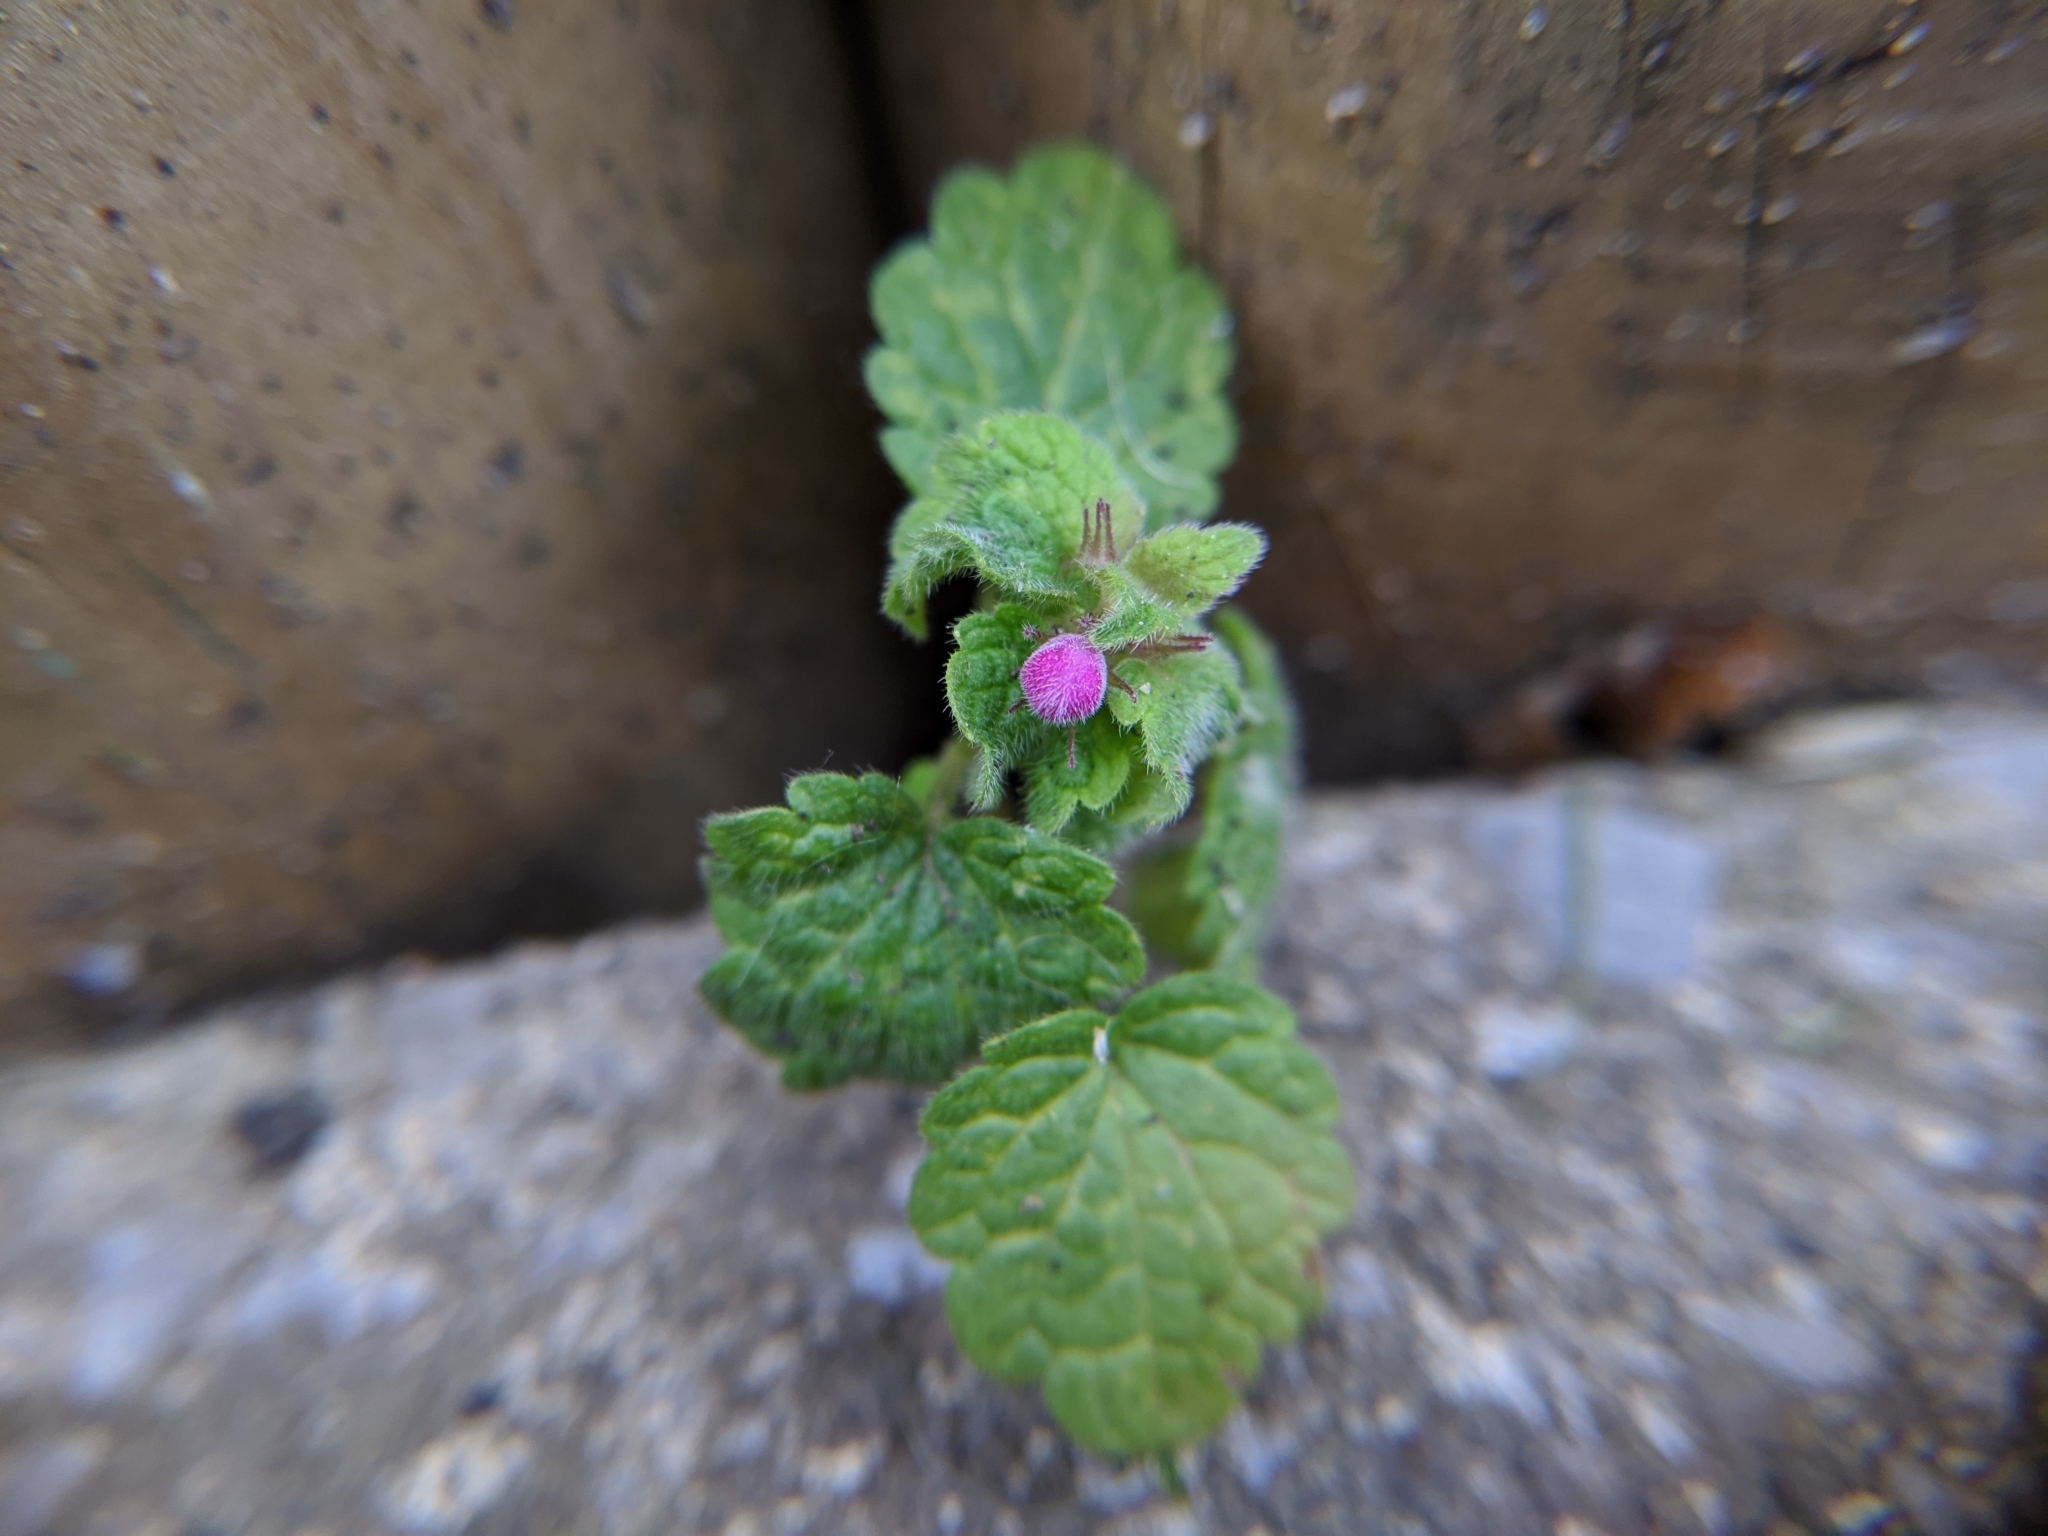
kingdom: Plantae
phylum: Tracheophyta
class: Magnoliopsida
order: Lamiales
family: Lamiaceae
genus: Lamium
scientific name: Lamium purpureum
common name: Red dead-nettle
